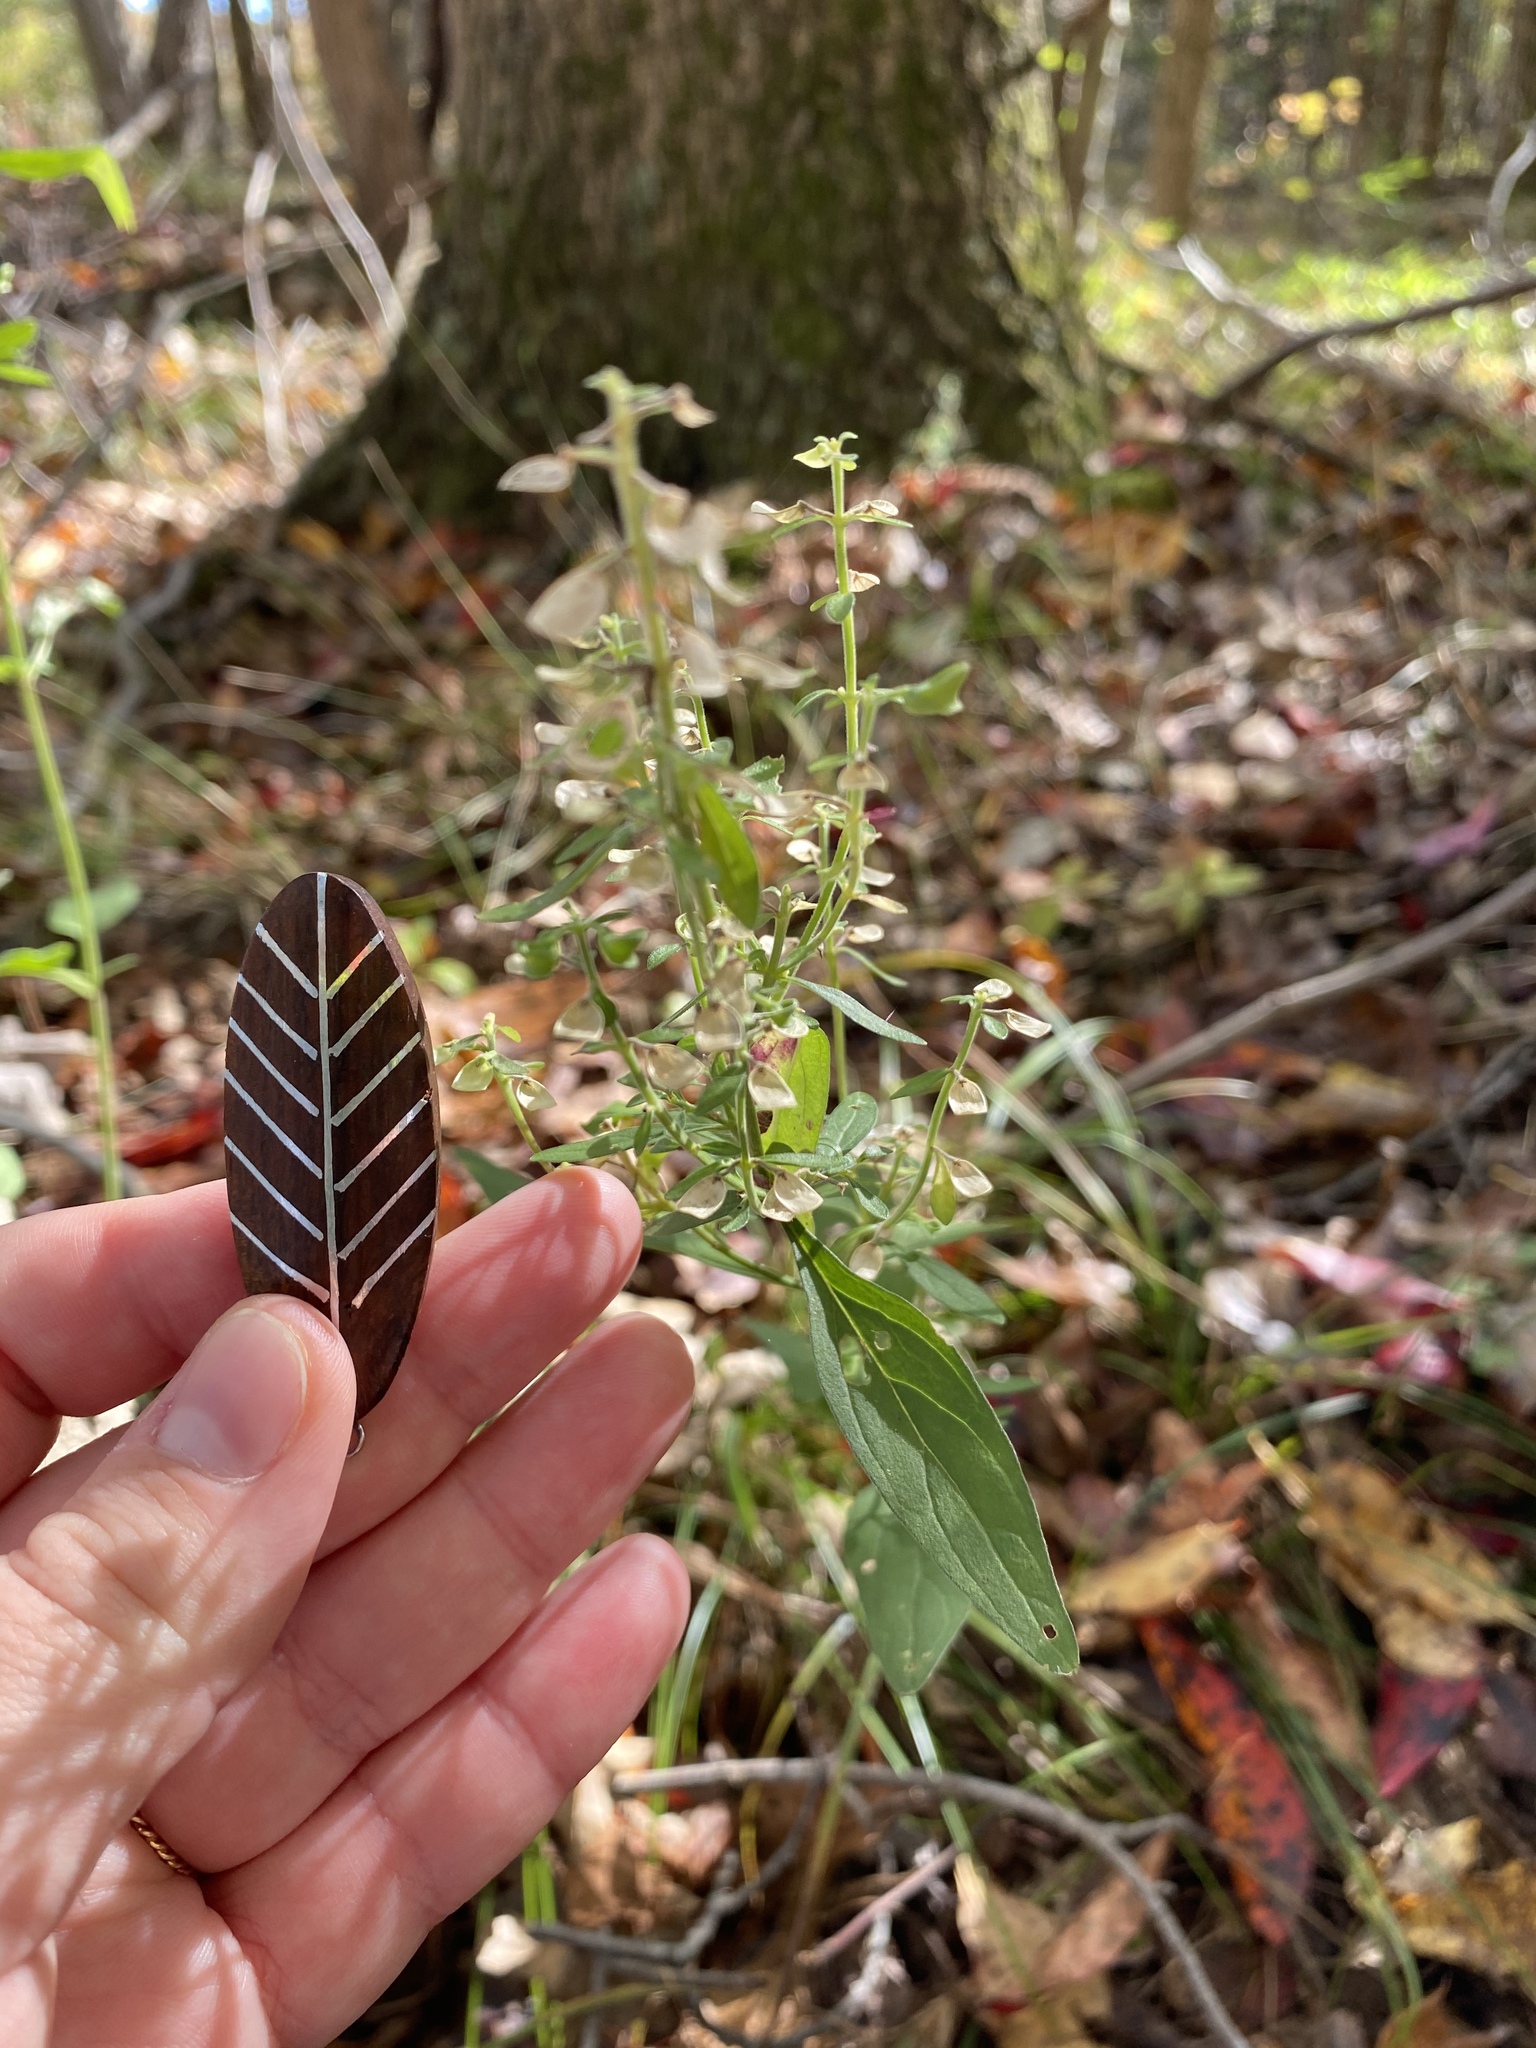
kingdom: Plantae
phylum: Tracheophyta
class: Magnoliopsida
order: Lamiales
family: Lamiaceae
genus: Scutellaria
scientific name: Scutellaria integrifolia
